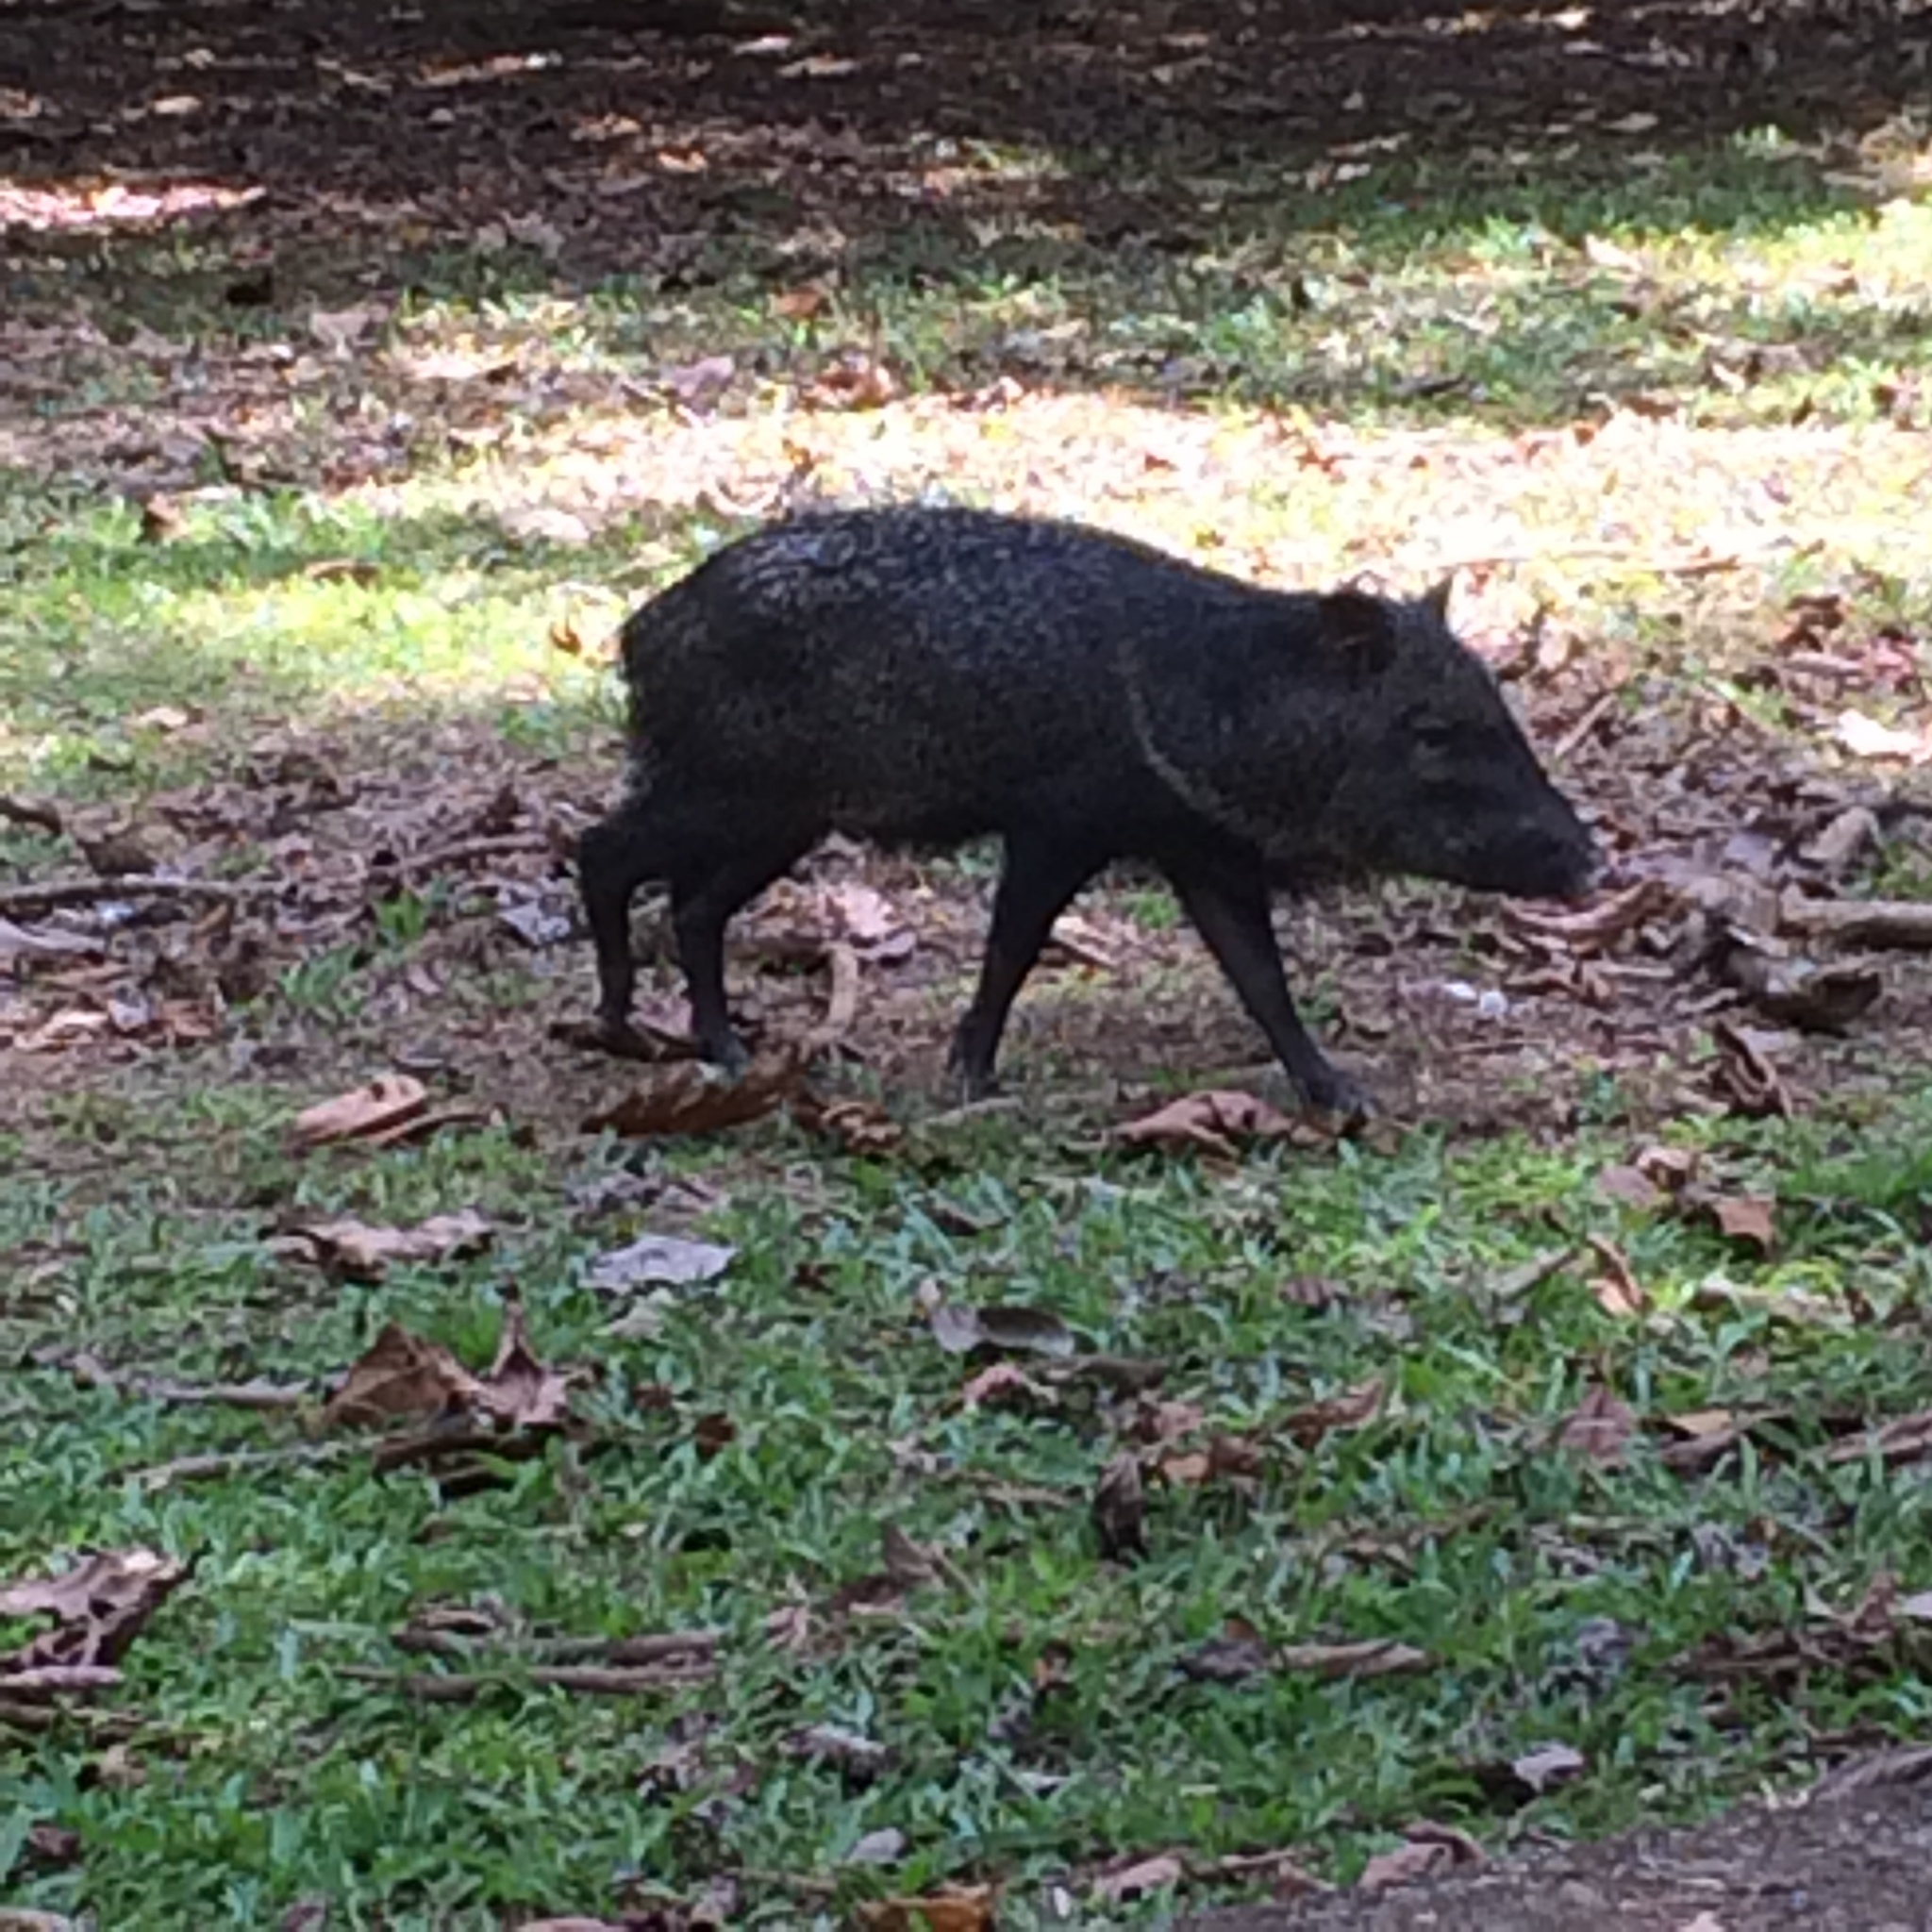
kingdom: Animalia
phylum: Chordata
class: Mammalia
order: Artiodactyla
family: Tayassuidae
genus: Pecari
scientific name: Pecari tajacu
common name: Collared peccary
